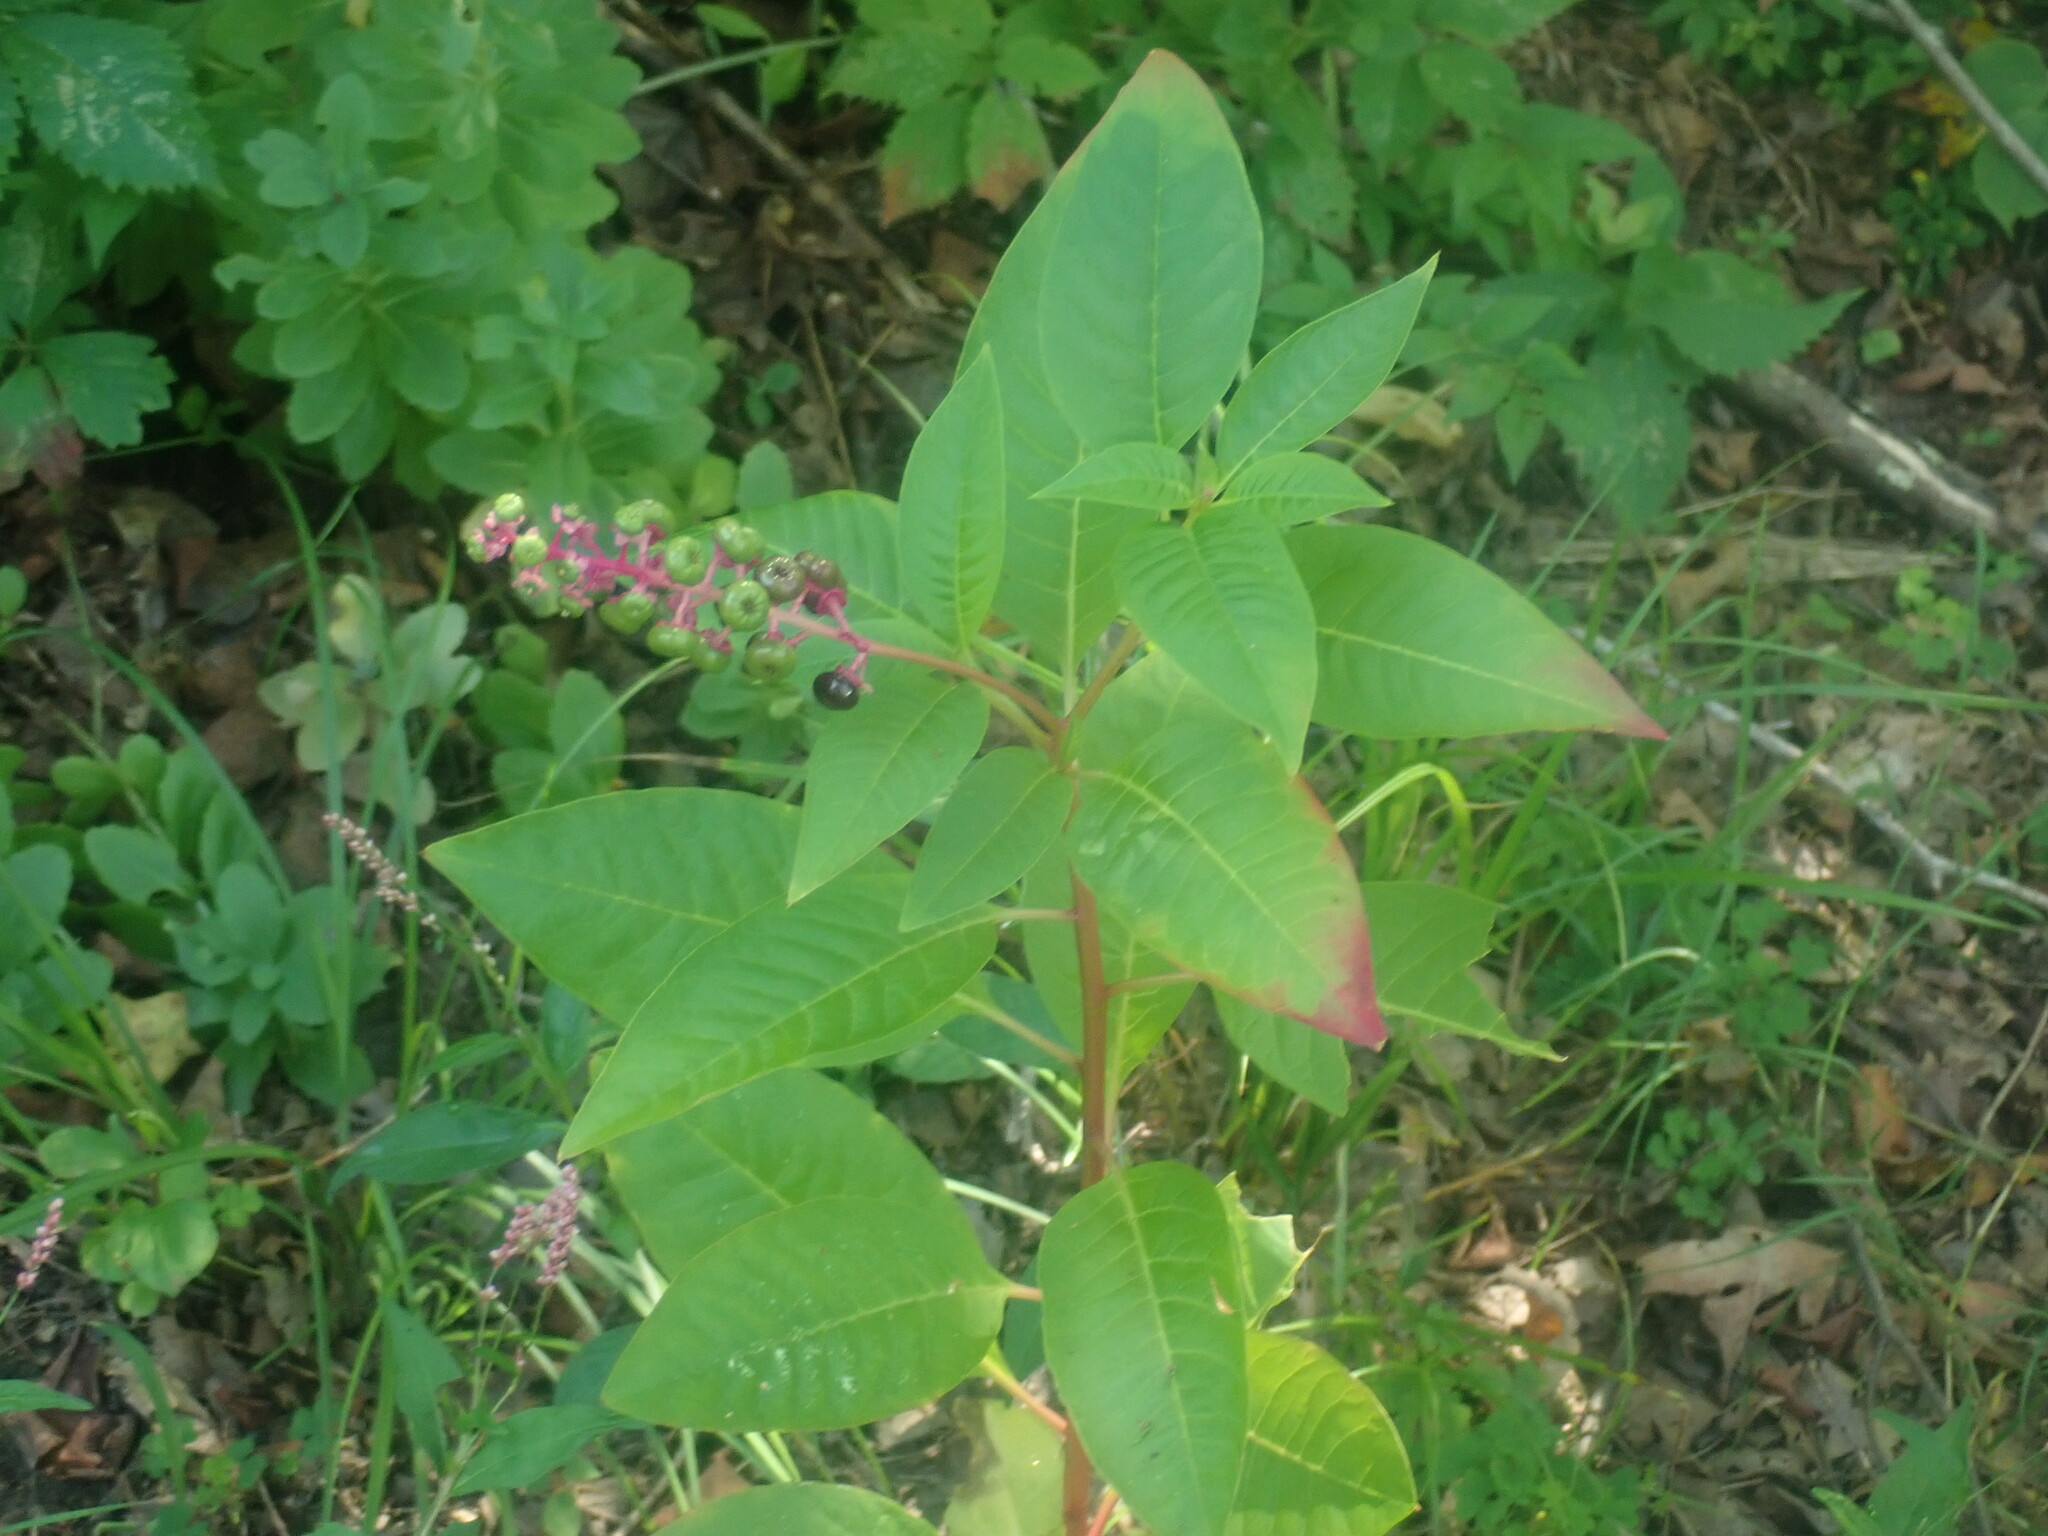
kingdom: Plantae
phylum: Tracheophyta
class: Magnoliopsida
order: Caryophyllales
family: Phytolaccaceae
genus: Phytolacca
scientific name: Phytolacca americana
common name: American pokeweed
